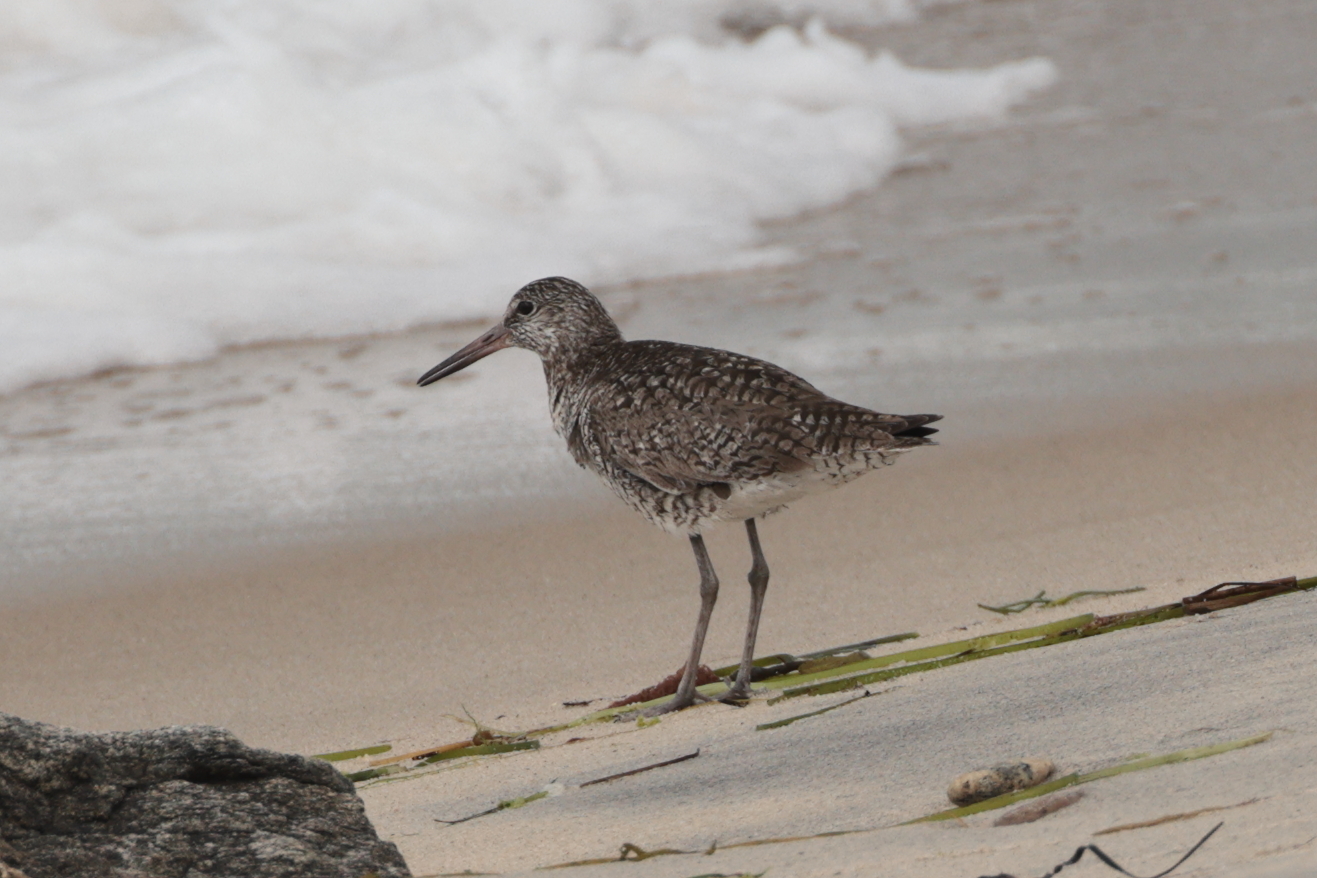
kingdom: Animalia
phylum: Chordata
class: Aves
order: Charadriiformes
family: Scolopacidae
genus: Tringa
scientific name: Tringa semipalmata
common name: Willet
